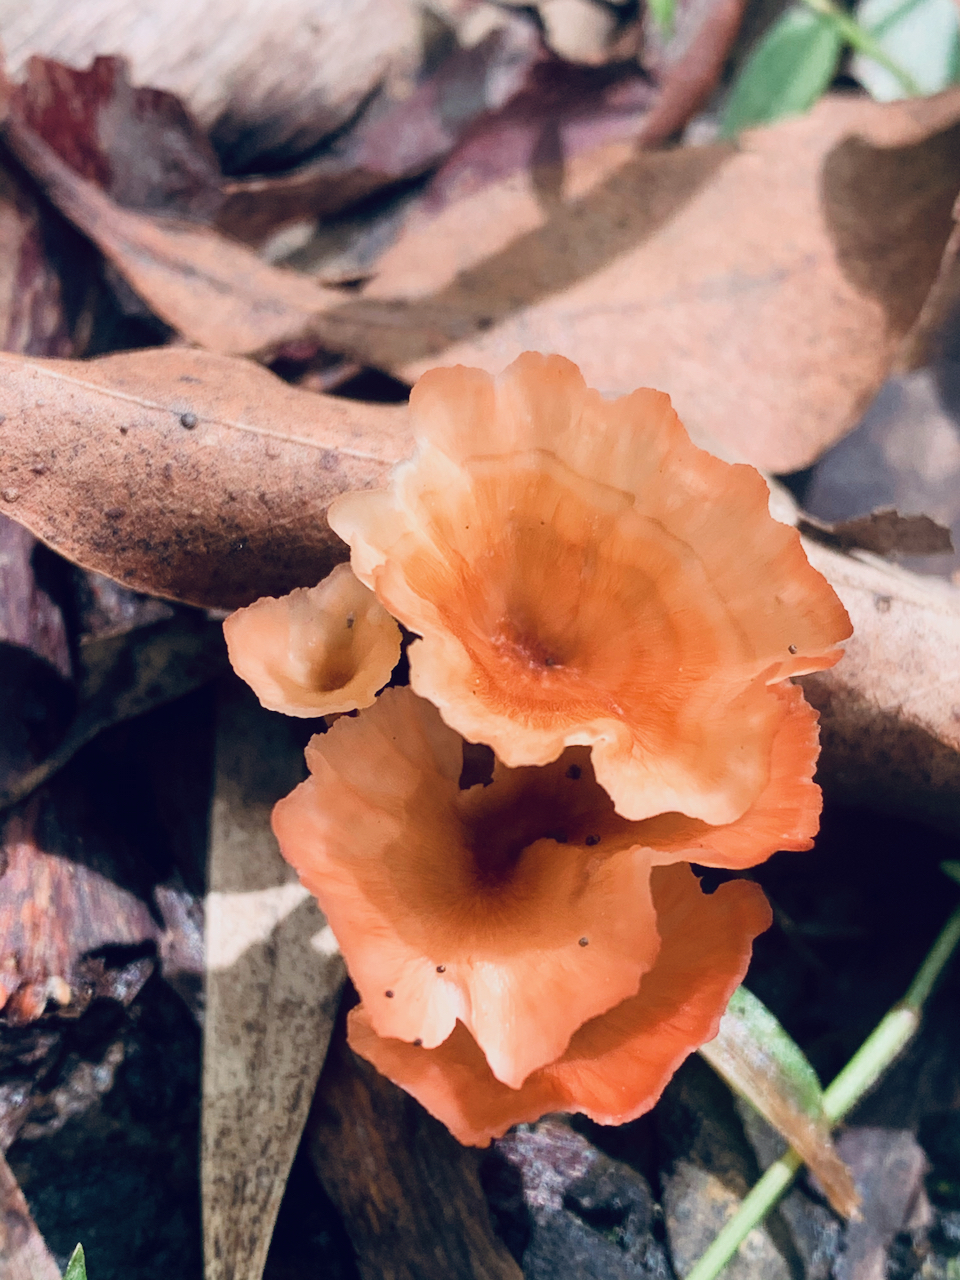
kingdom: Fungi
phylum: Basidiomycota
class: Agaricomycetes
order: Polyporales
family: Podoscyphaceae
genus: Podoscypha
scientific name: Podoscypha petalodes
